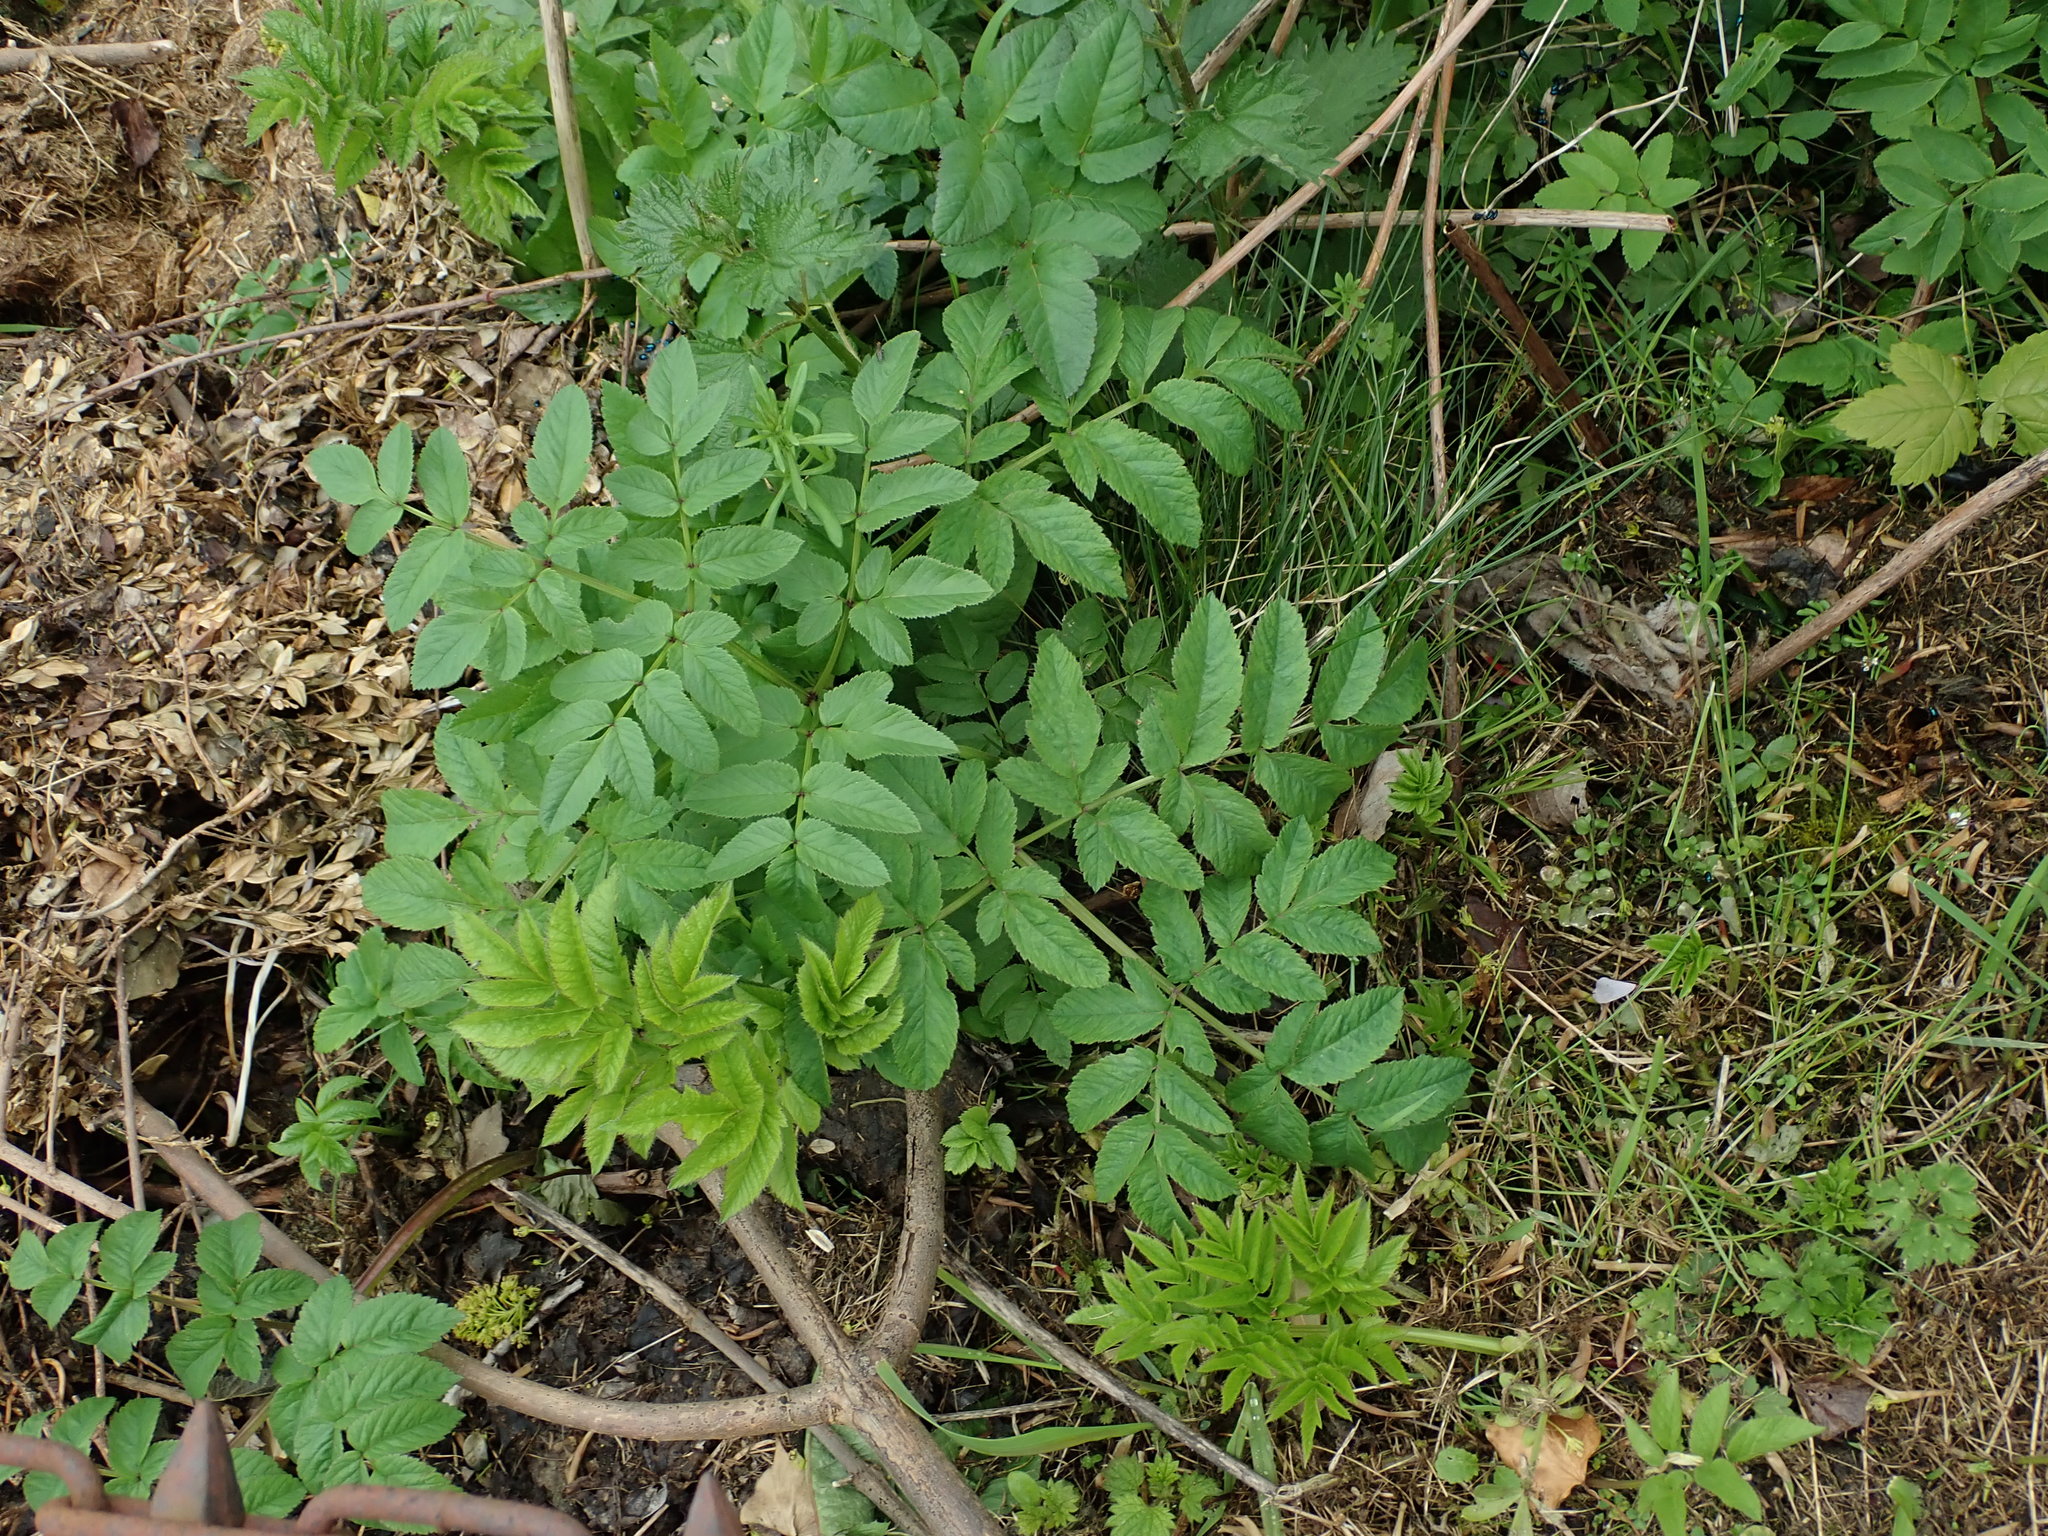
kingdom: Plantae
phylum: Tracheophyta
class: Magnoliopsida
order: Apiales
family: Apiaceae
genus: Angelica
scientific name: Angelica sylvestris
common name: Wild angelica
